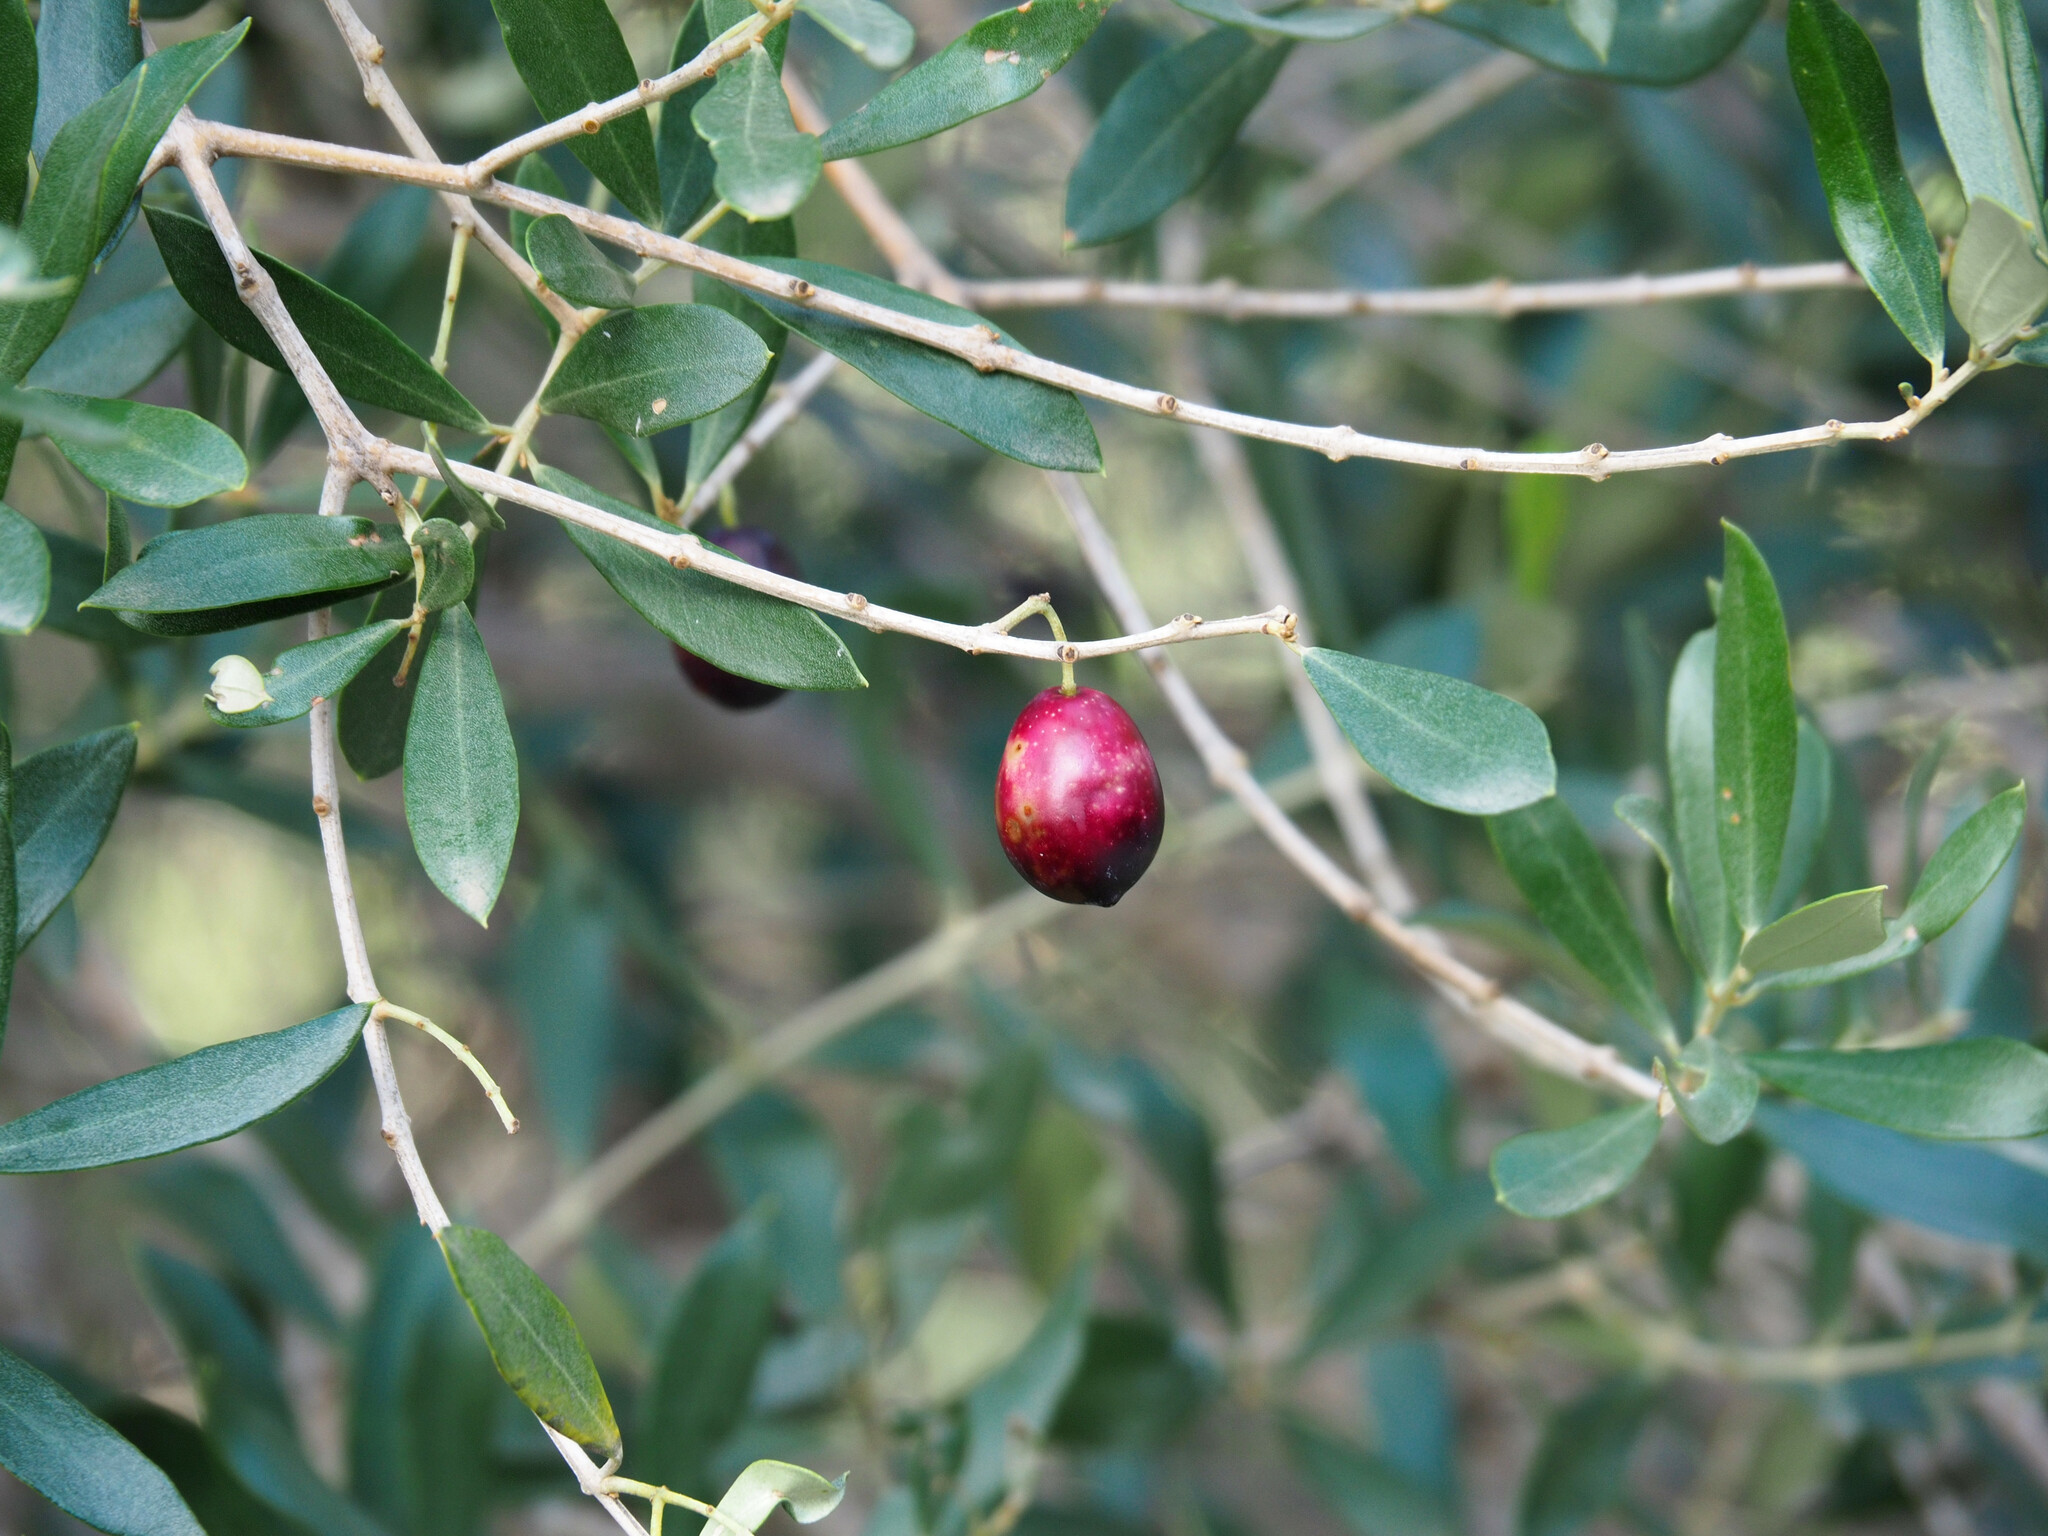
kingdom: Plantae
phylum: Tracheophyta
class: Magnoliopsida
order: Lamiales
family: Oleaceae
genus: Olea
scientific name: Olea europaea
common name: Olive
